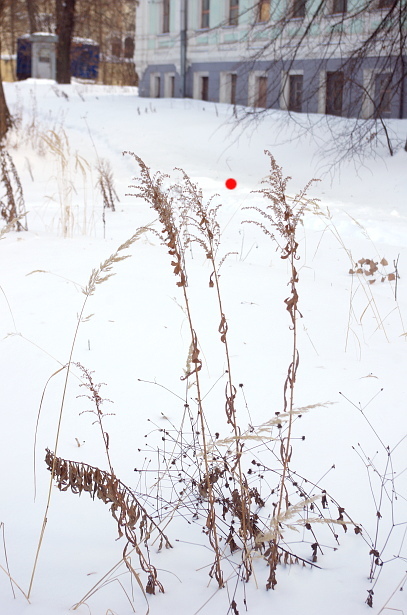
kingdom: Plantae
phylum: Tracheophyta
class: Magnoliopsida
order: Asterales
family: Asteraceae
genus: Solidago
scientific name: Solidago canadensis
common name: Canada goldenrod
